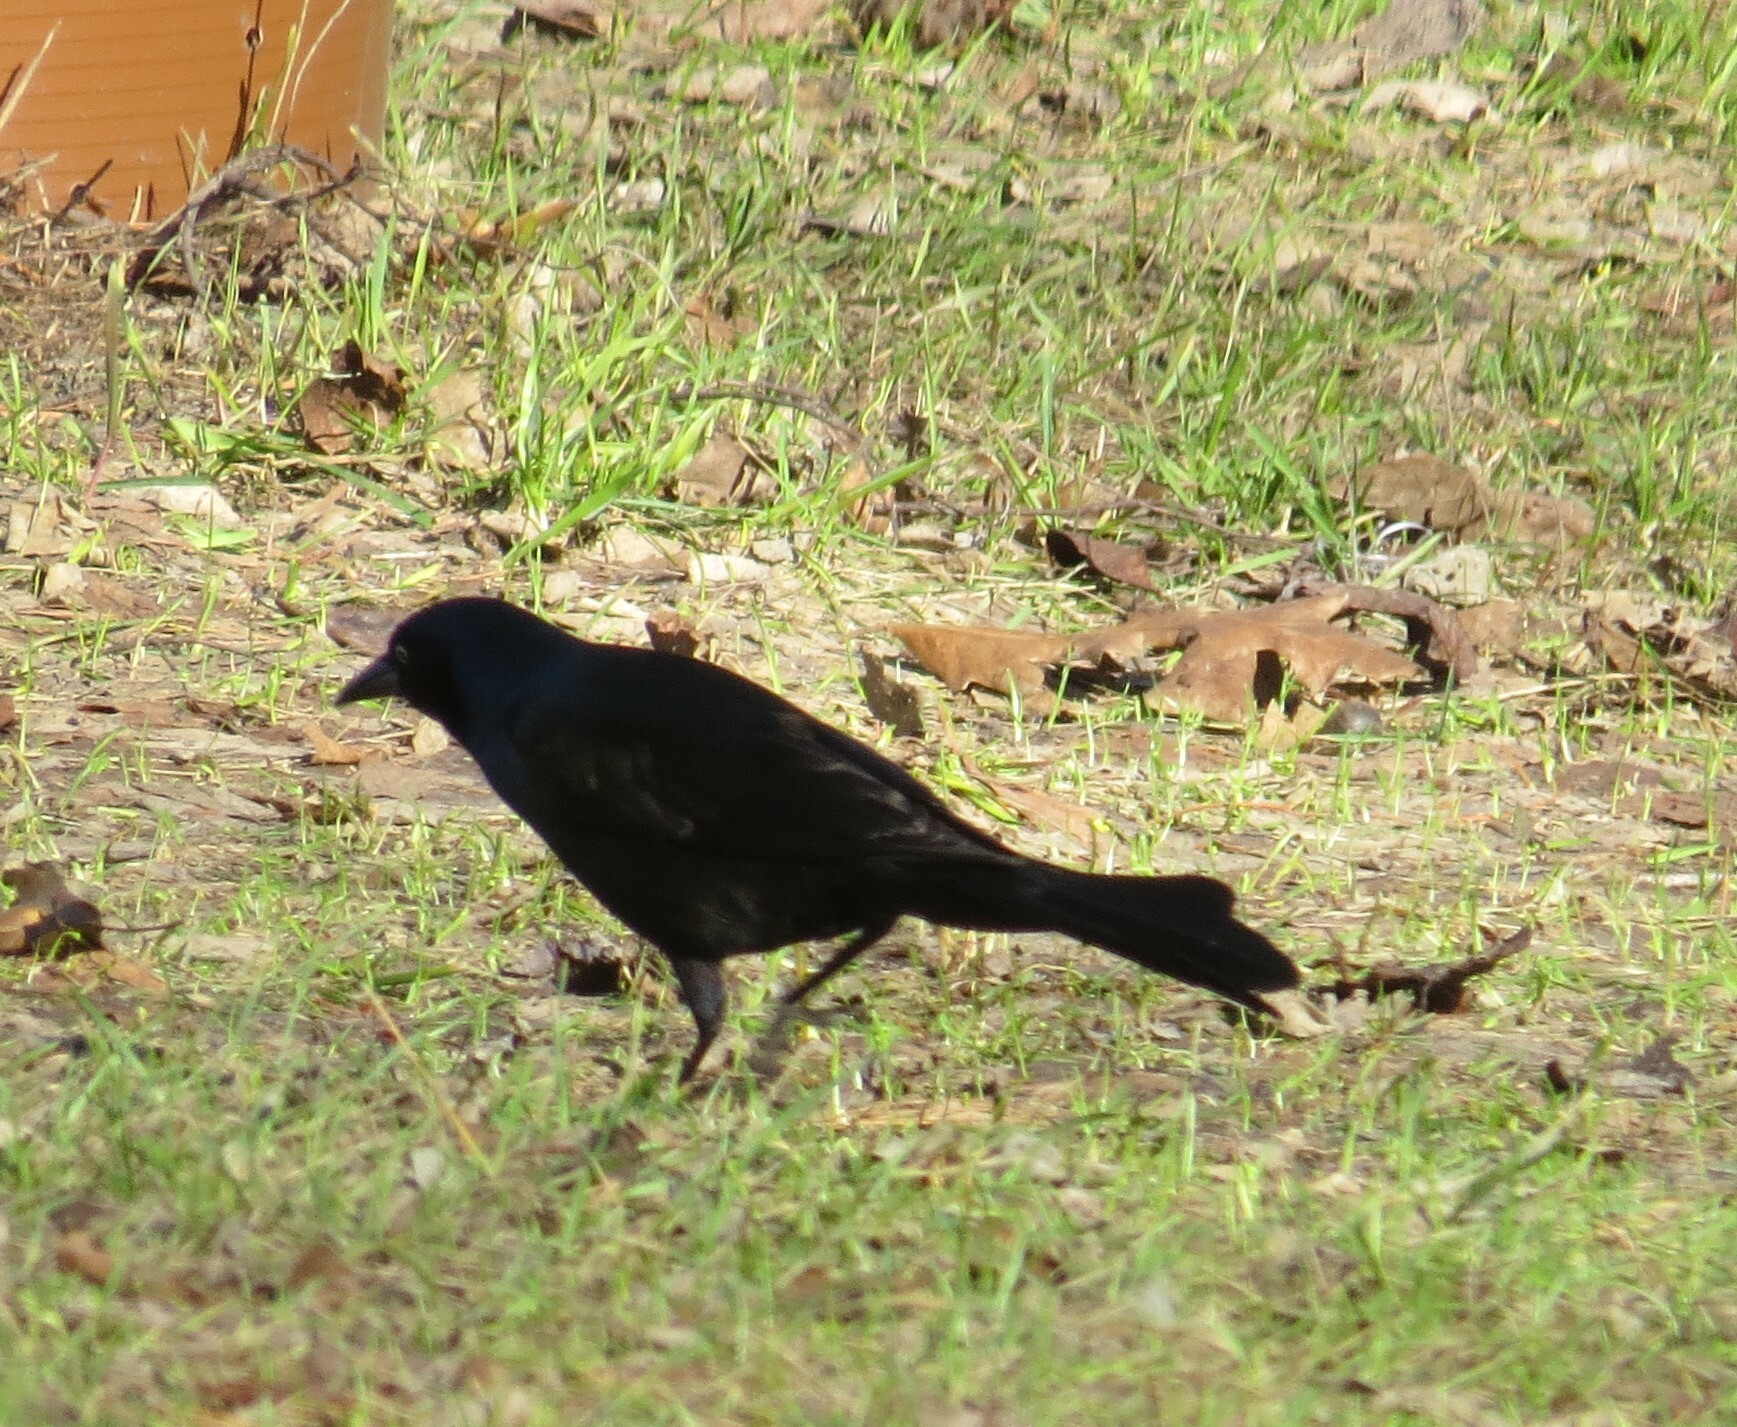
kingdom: Animalia
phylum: Chordata
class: Aves
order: Passeriformes
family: Icteridae
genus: Quiscalus
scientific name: Quiscalus quiscula
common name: Common grackle
